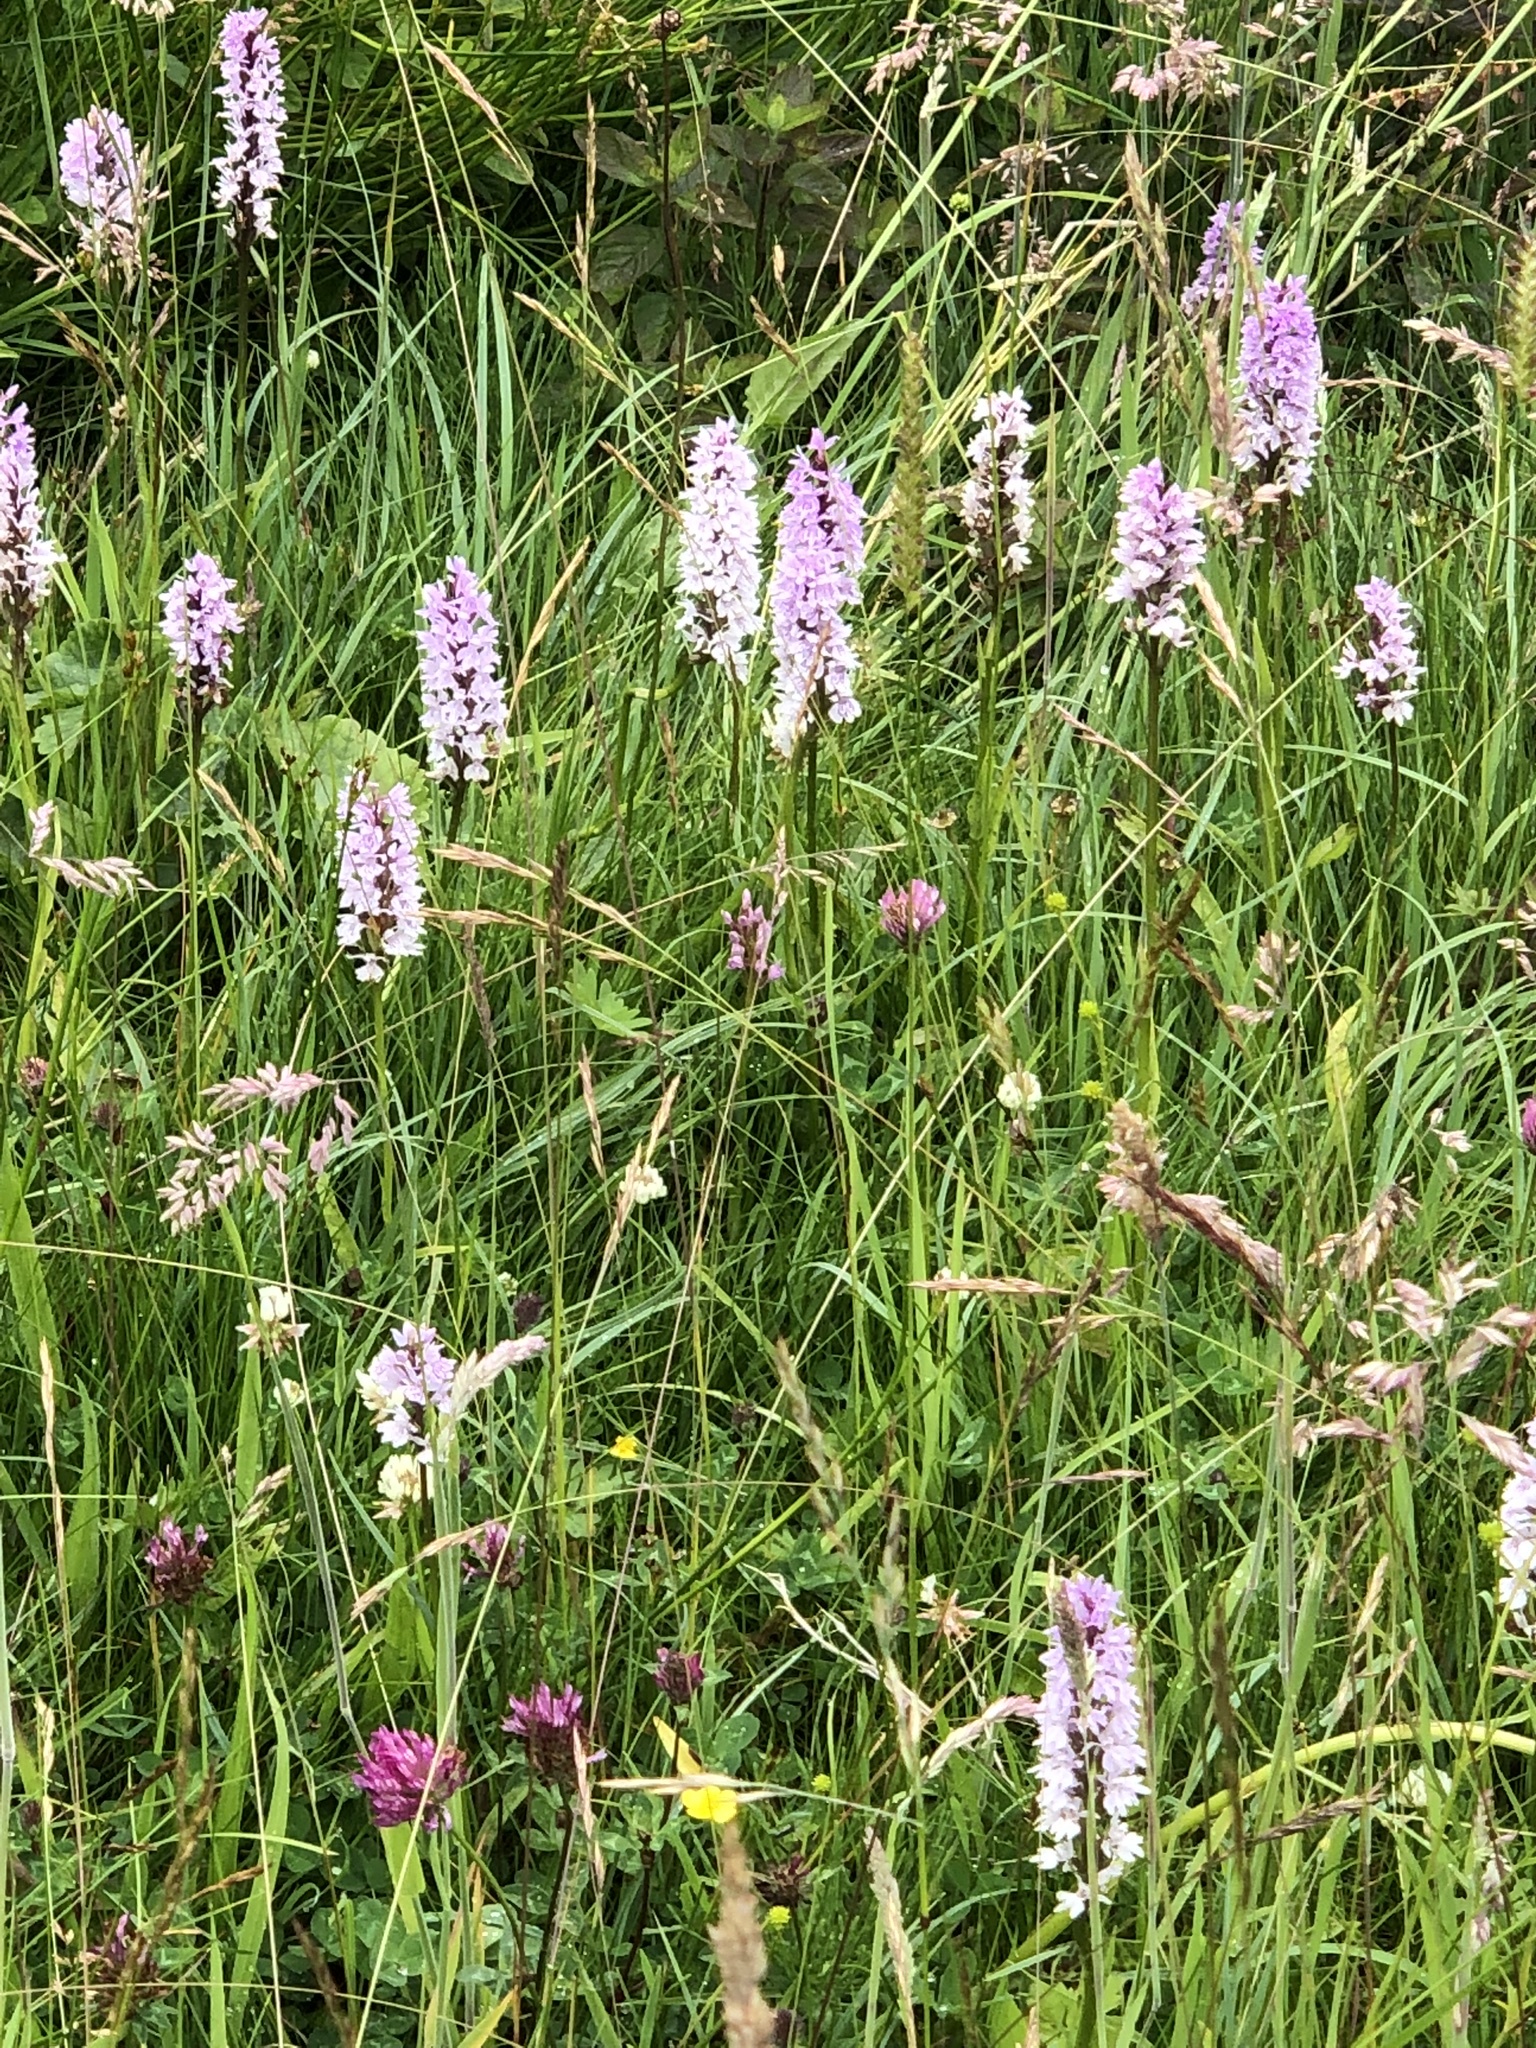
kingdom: Plantae
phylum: Tracheophyta
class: Liliopsida
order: Asparagales
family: Orchidaceae
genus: Dactylorhiza
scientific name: Dactylorhiza maculata
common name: Heath spotted-orchid
